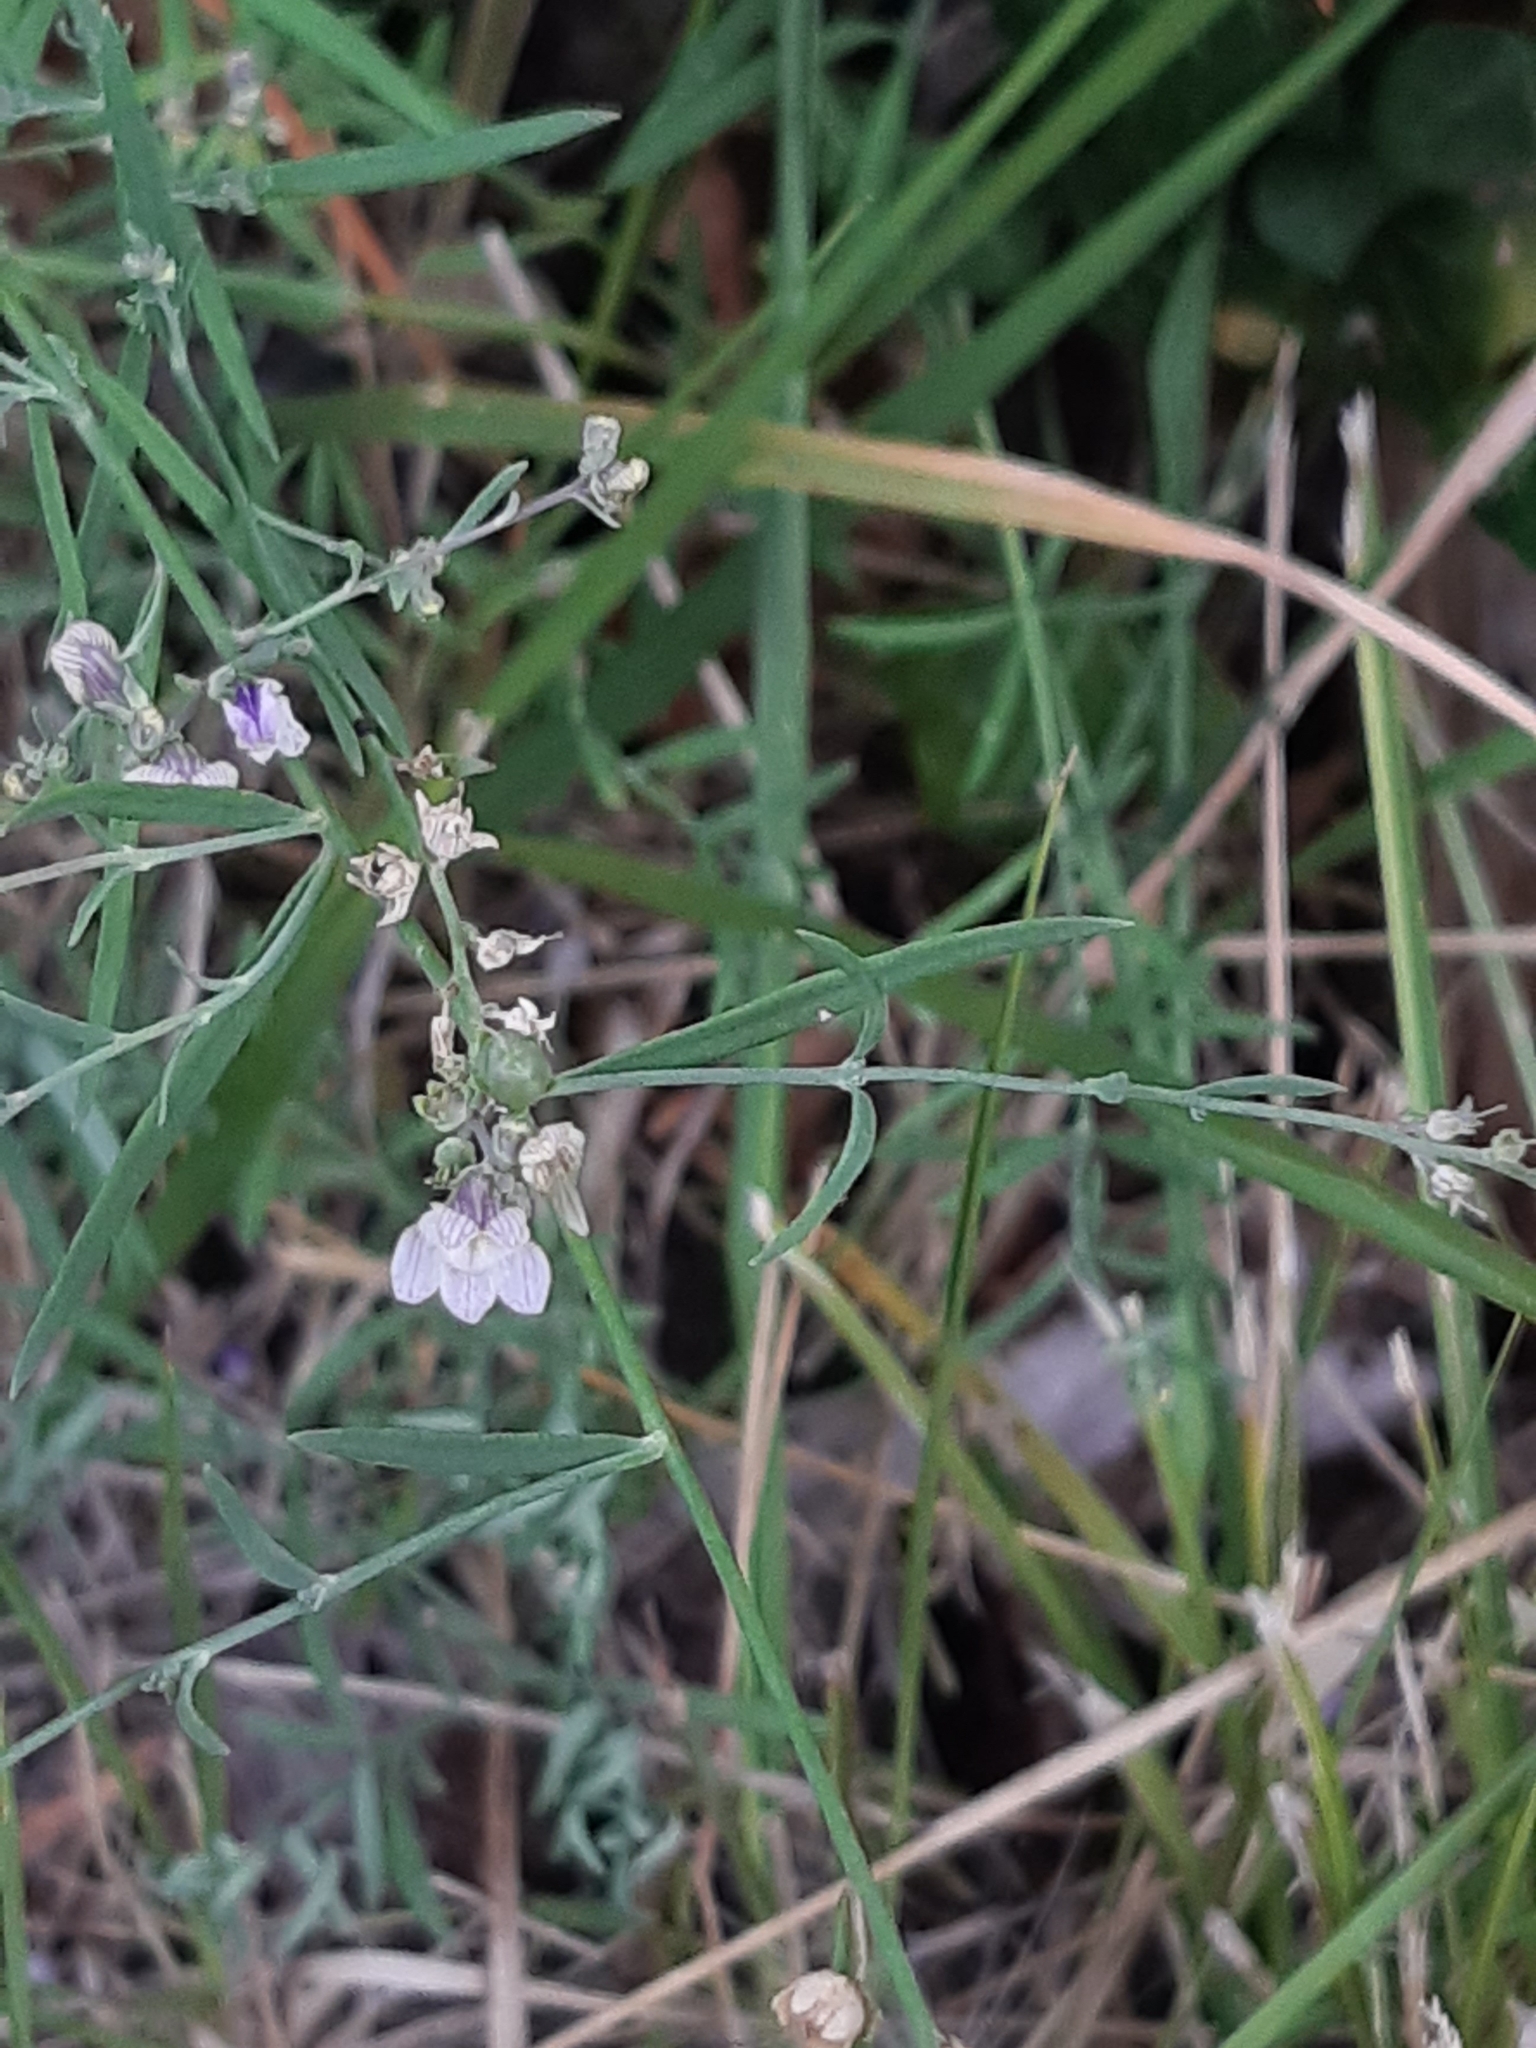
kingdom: Plantae
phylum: Tracheophyta
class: Magnoliopsida
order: Lamiales
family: Plantaginaceae
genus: Linaria
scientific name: Linaria repens
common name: Pale toadflax
